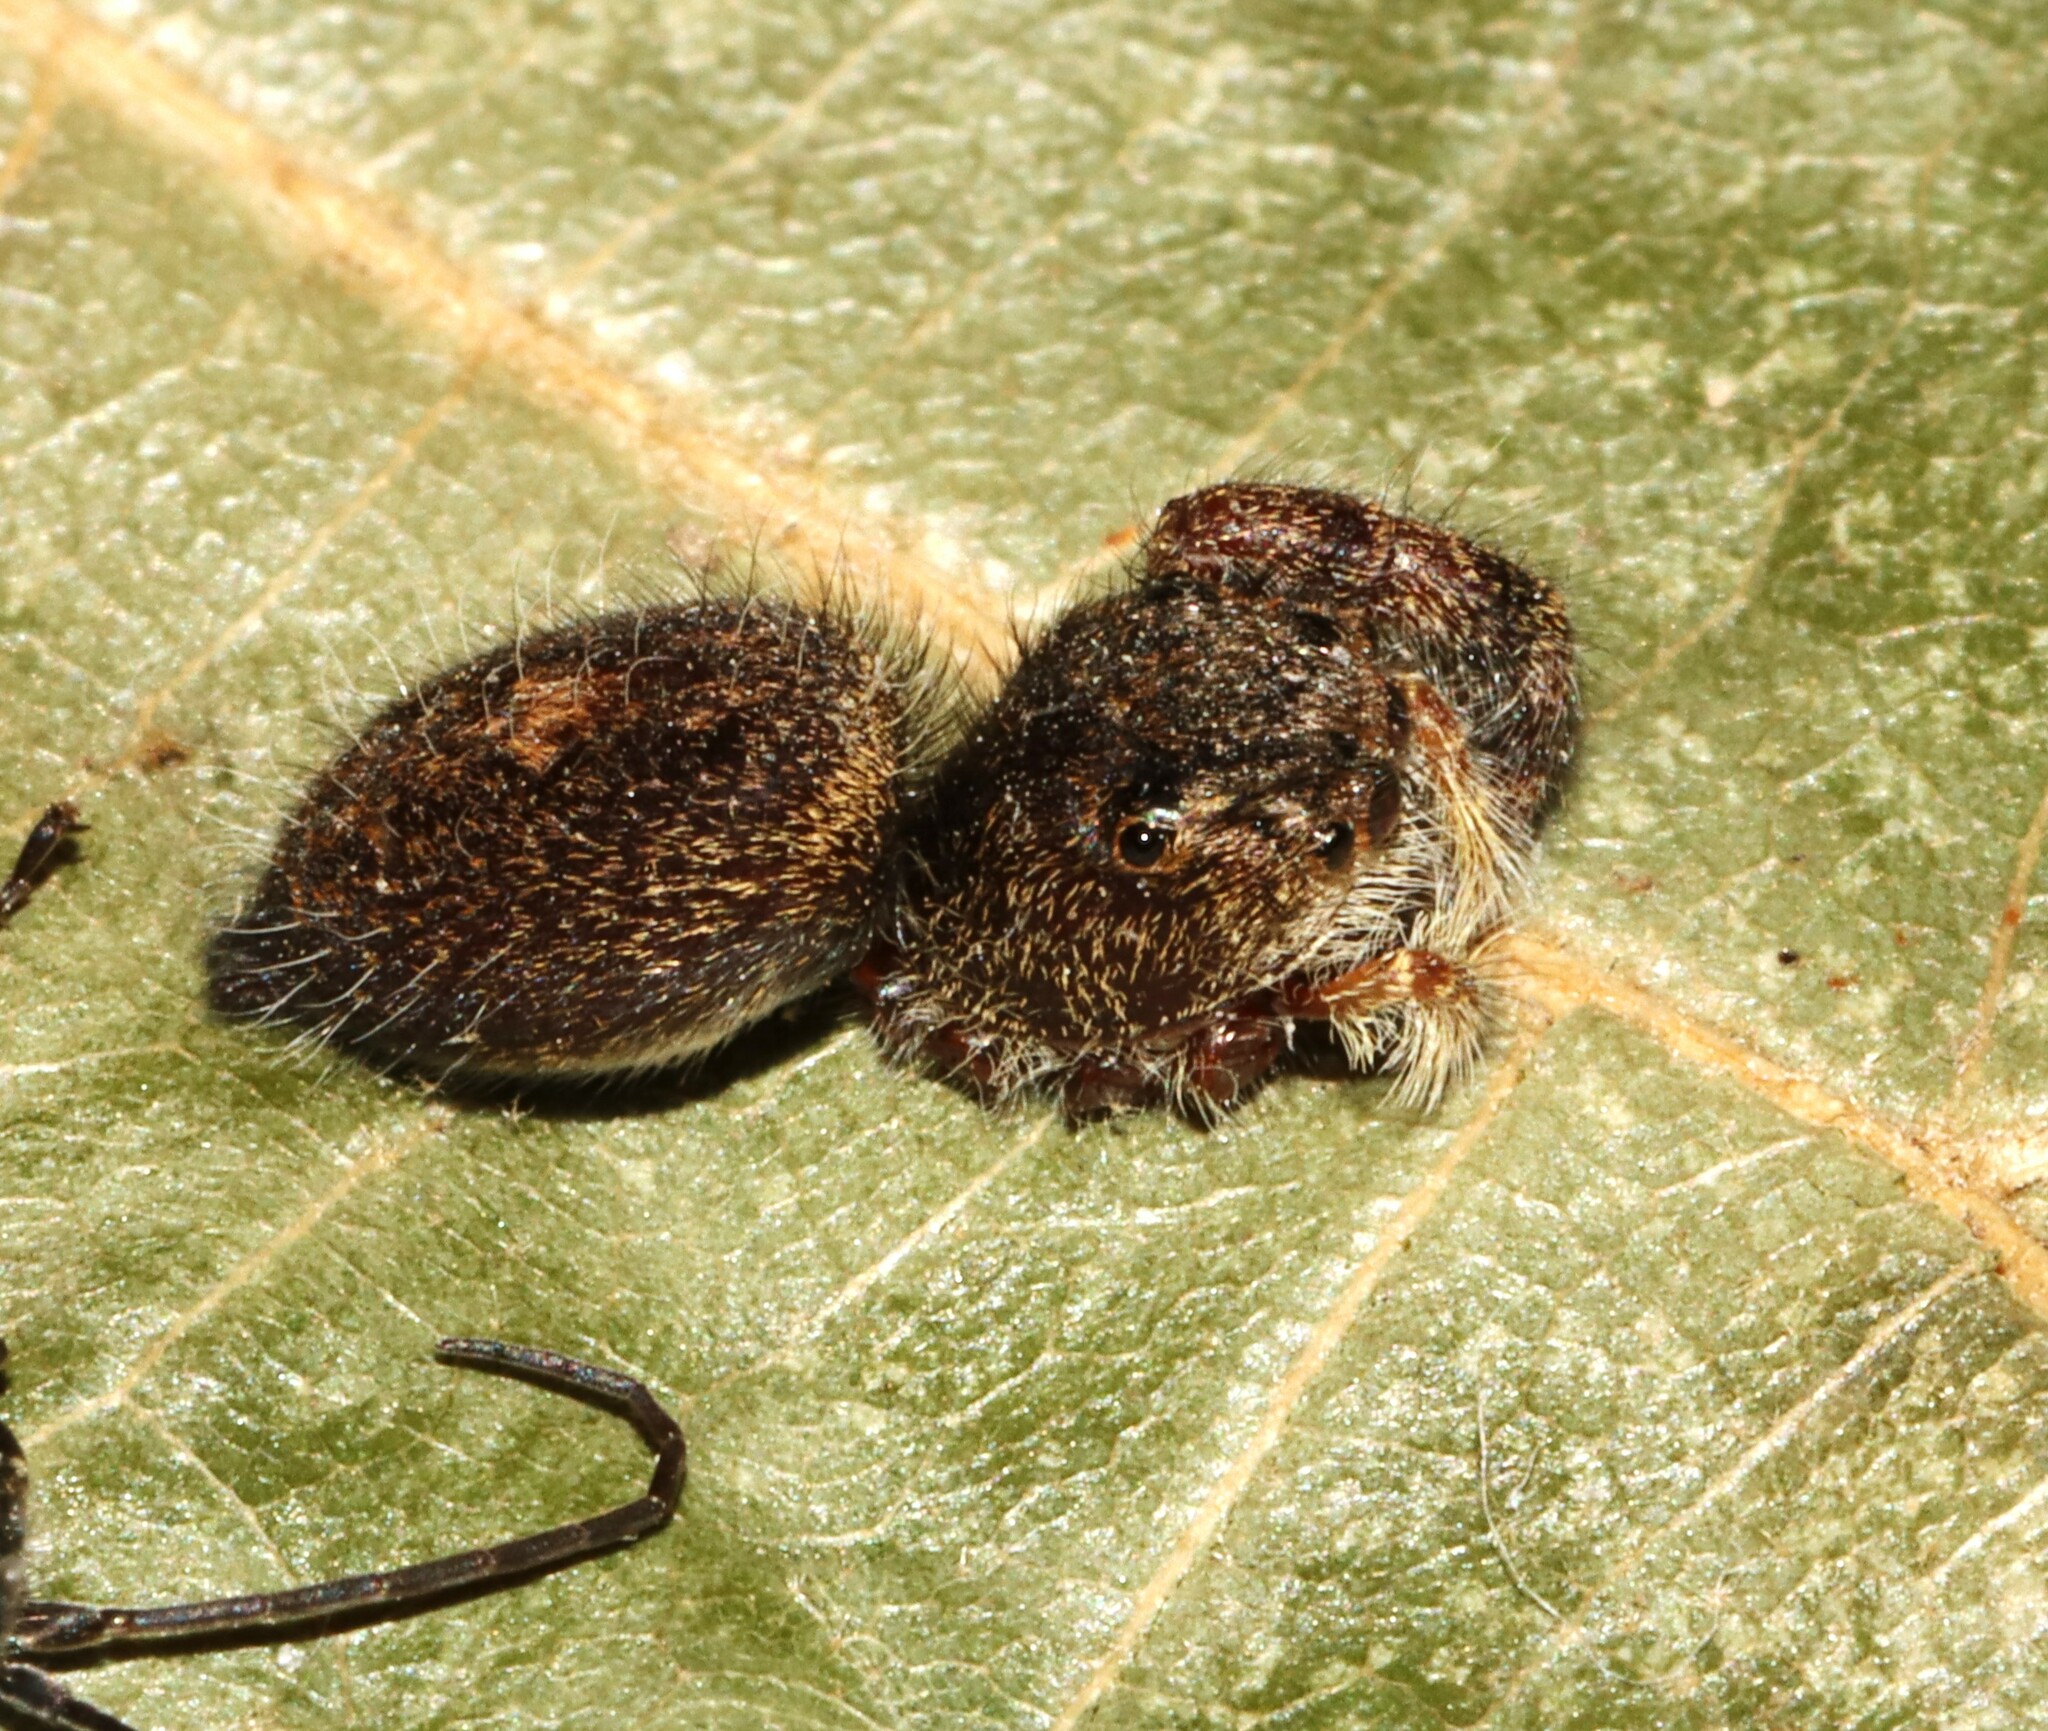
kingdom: Animalia
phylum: Arthropoda
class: Arachnida
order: Araneae
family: Salticidae
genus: Phidippus
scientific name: Phidippus princeps
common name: Grayish jumping spider
